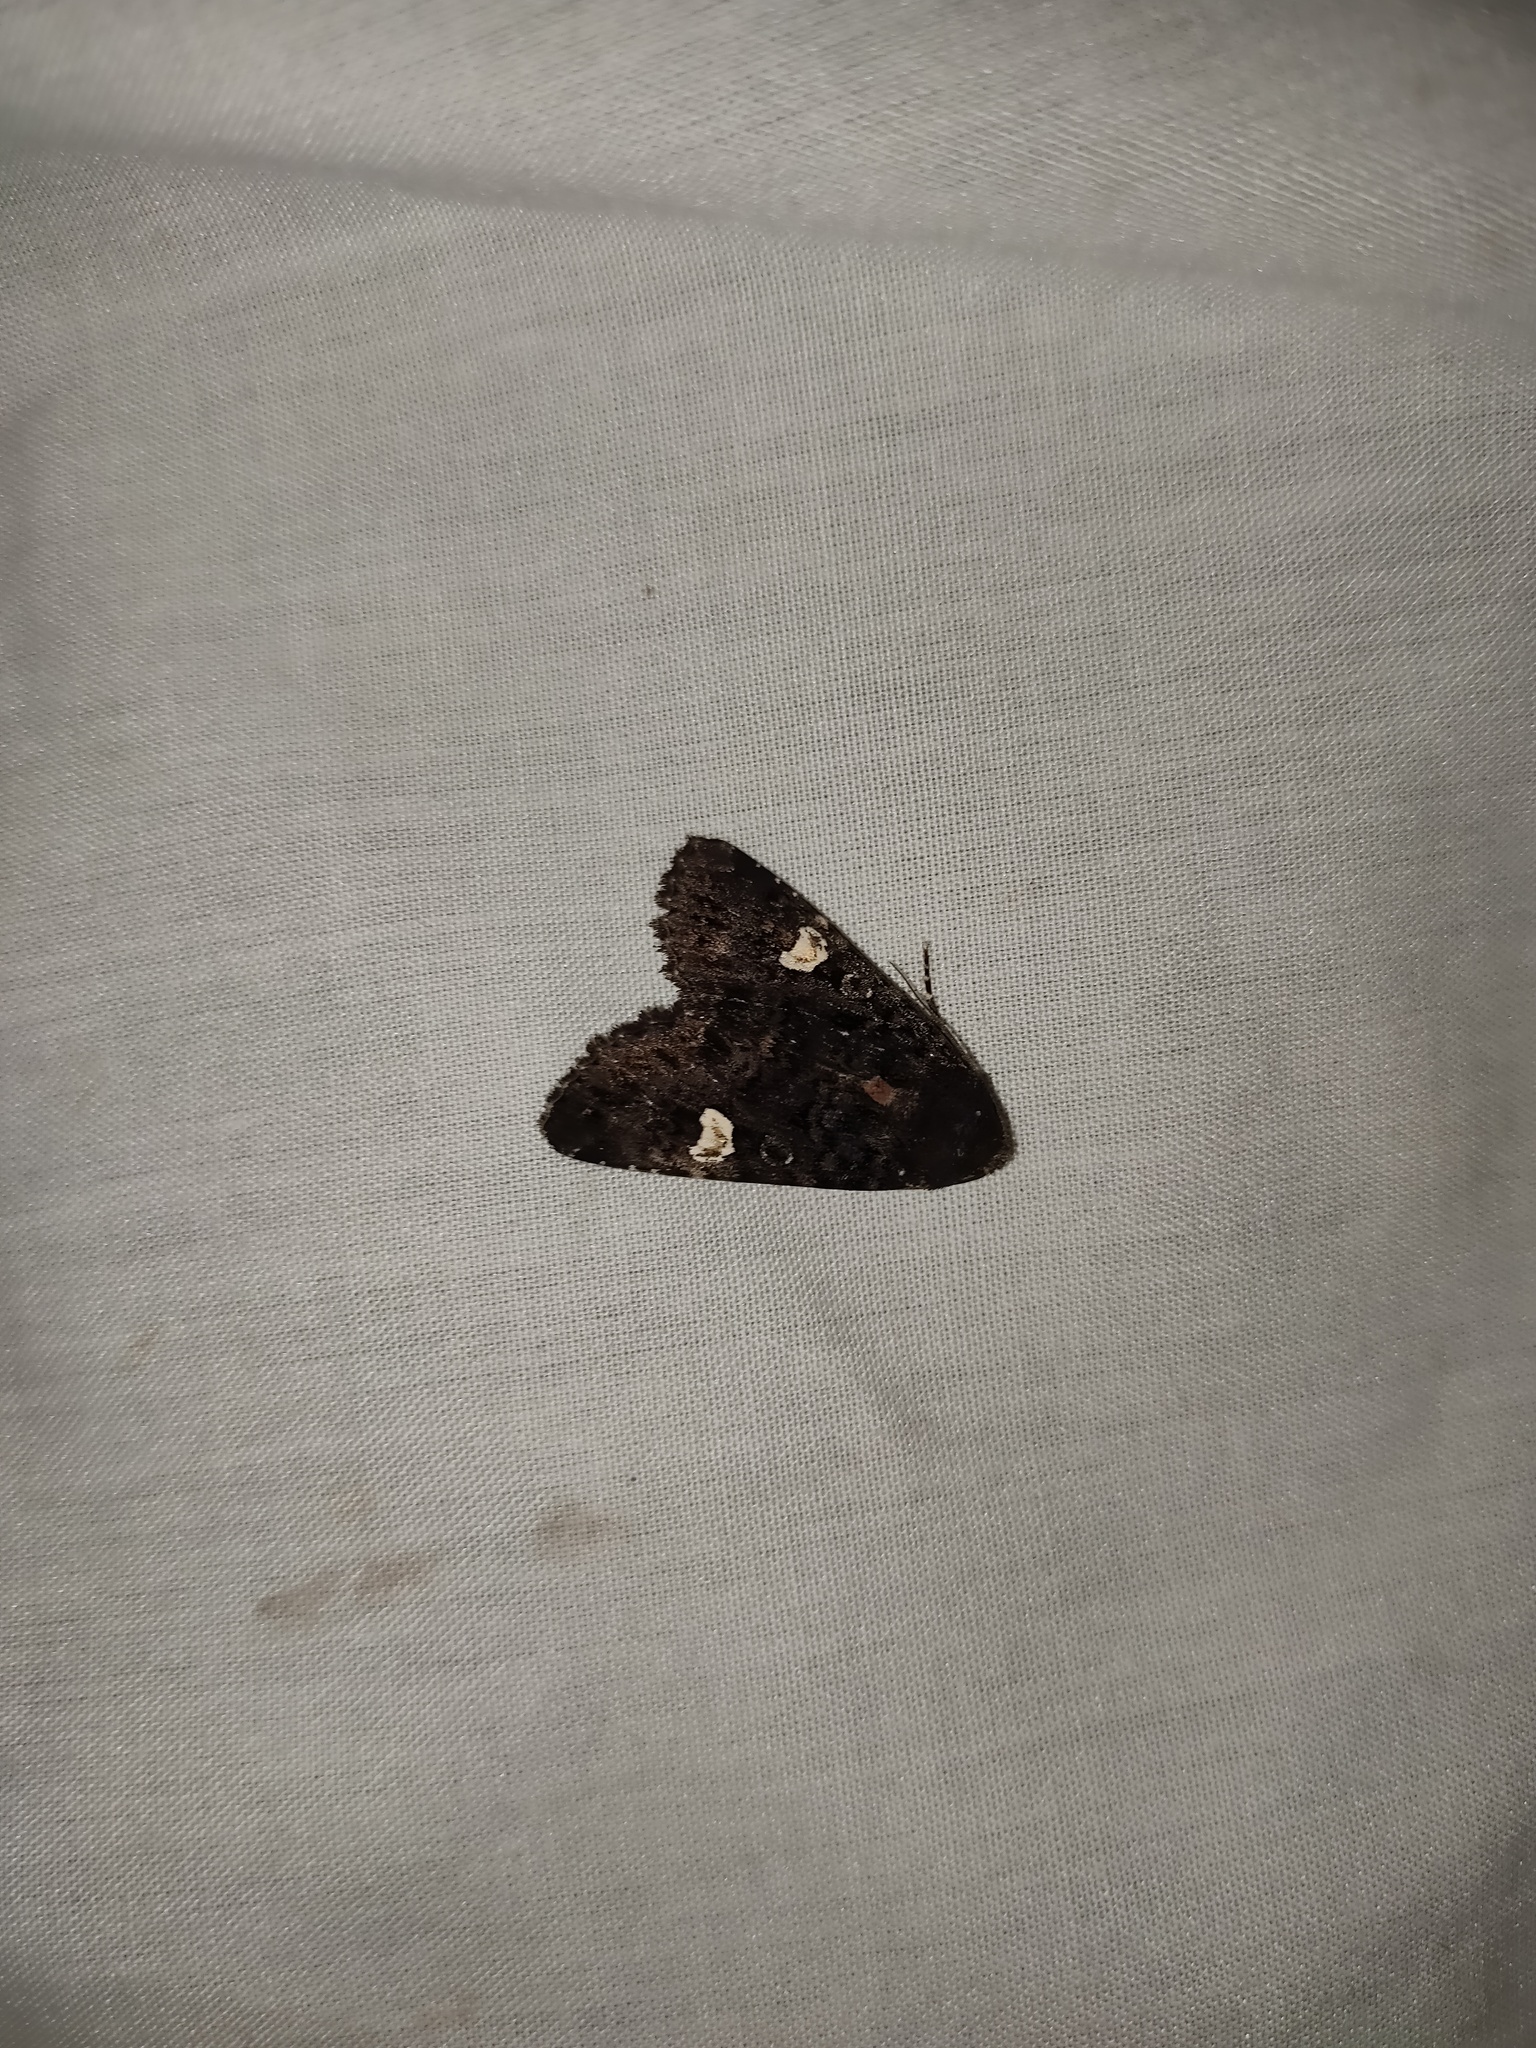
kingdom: Animalia
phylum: Arthropoda
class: Insecta
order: Lepidoptera
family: Noctuidae
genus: Melanchra
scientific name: Melanchra persicariae
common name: Dot moth
